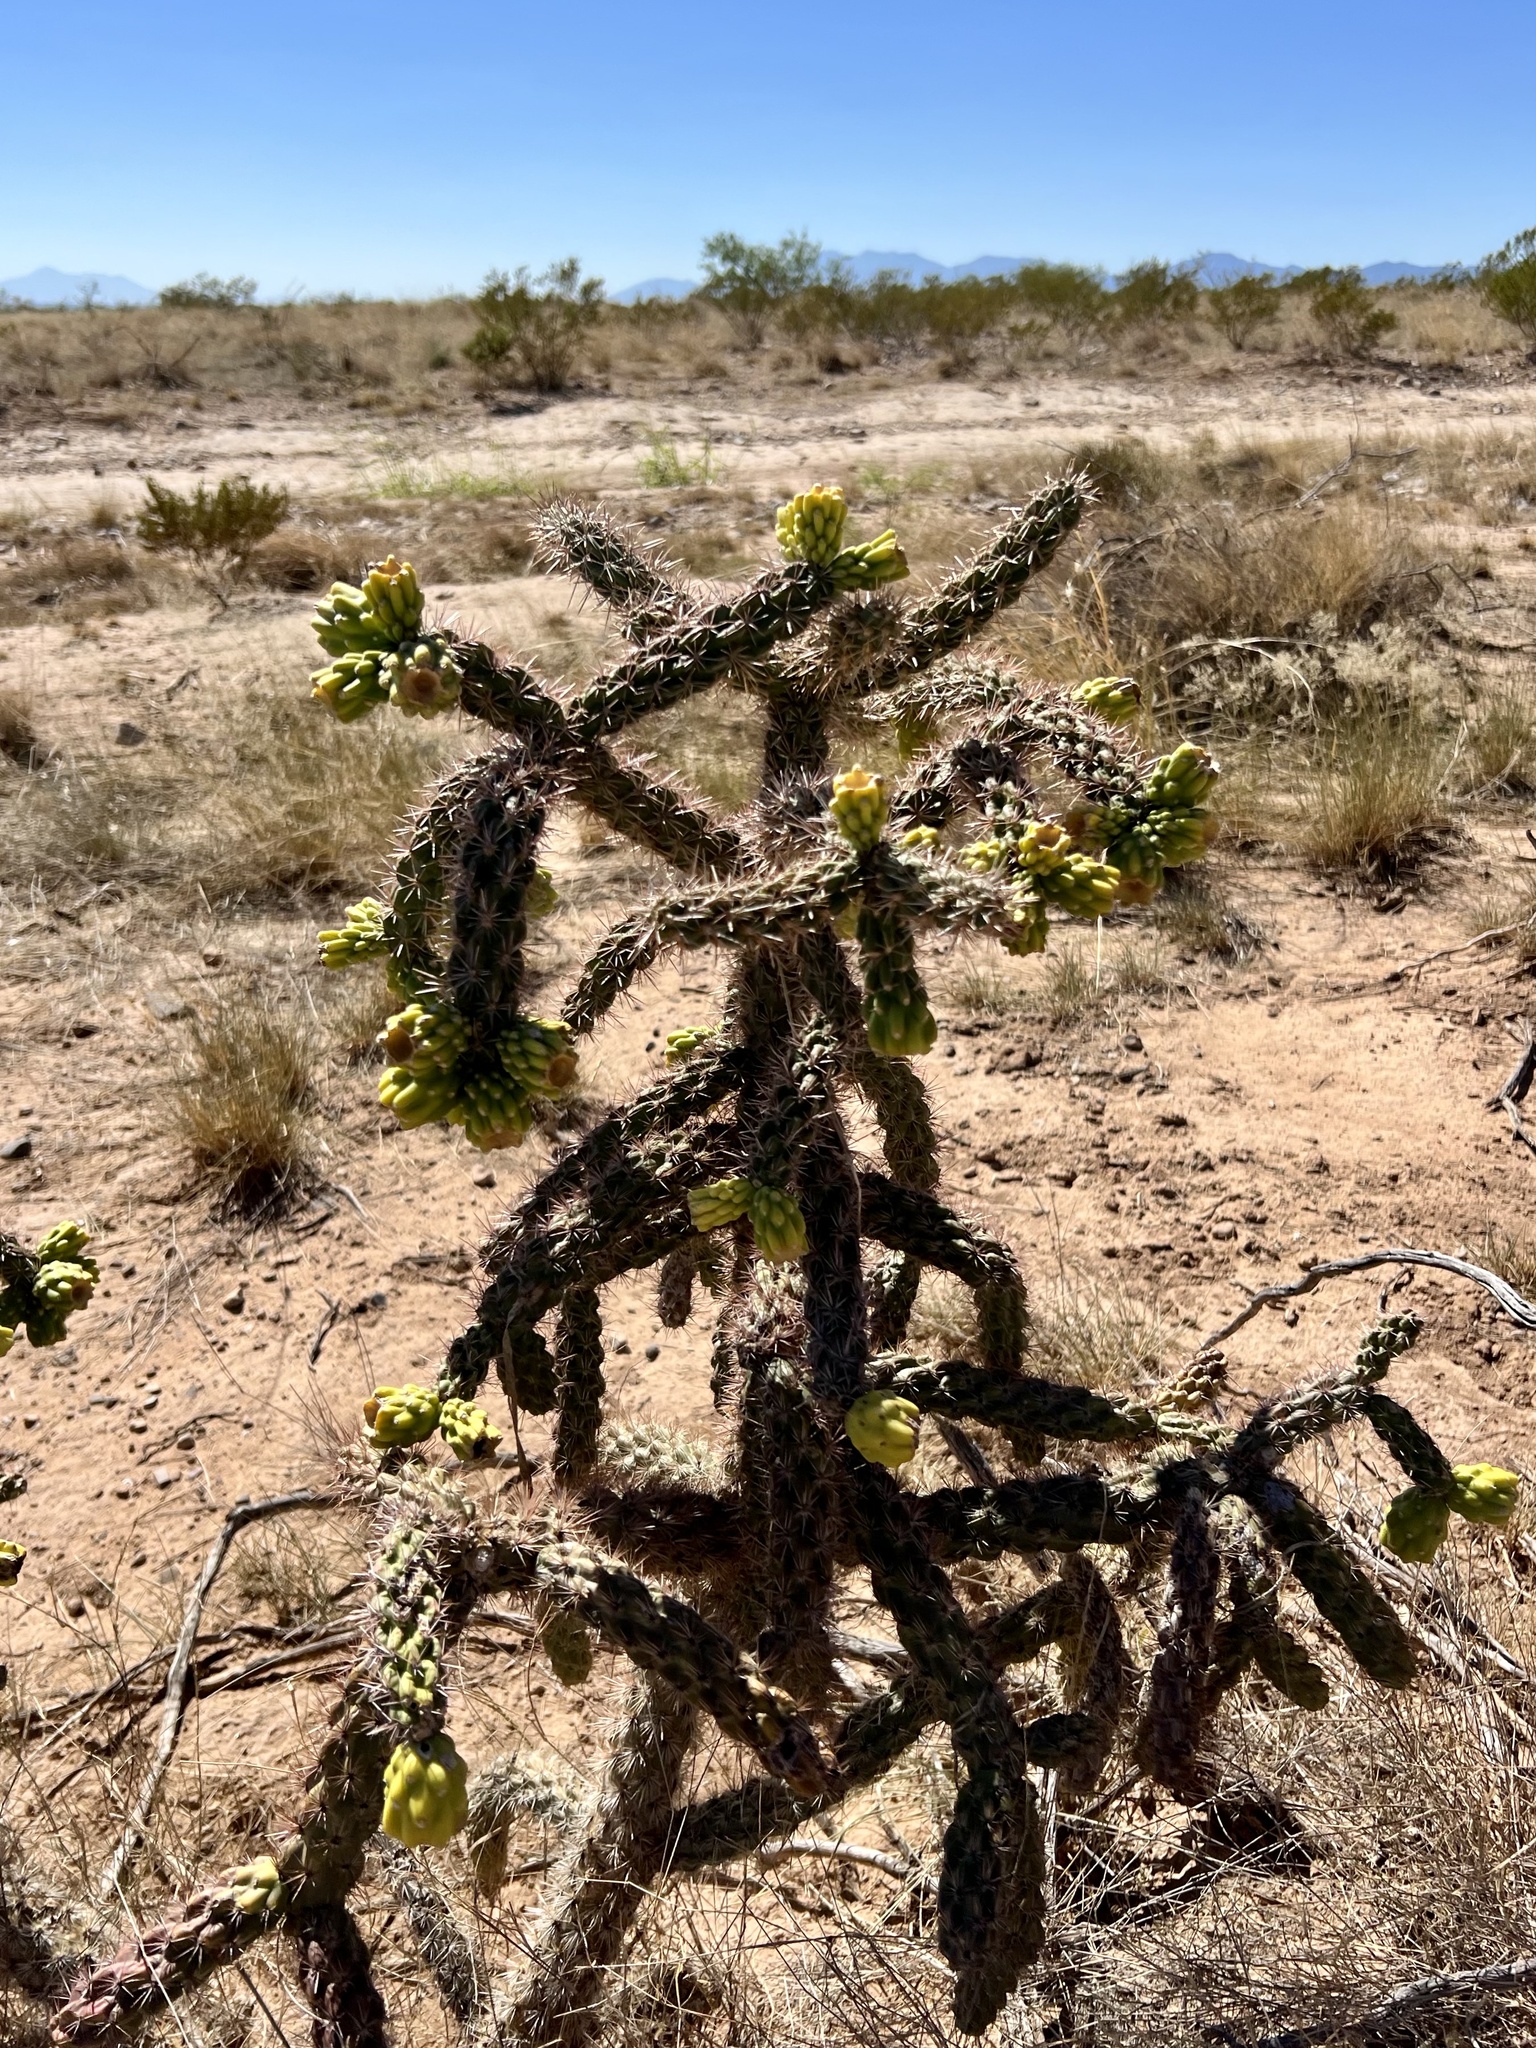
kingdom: Plantae
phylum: Tracheophyta
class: Magnoliopsida
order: Caryophyllales
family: Cactaceae
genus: Cylindropuntia
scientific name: Cylindropuntia imbricata
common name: Candelabrum cactus
